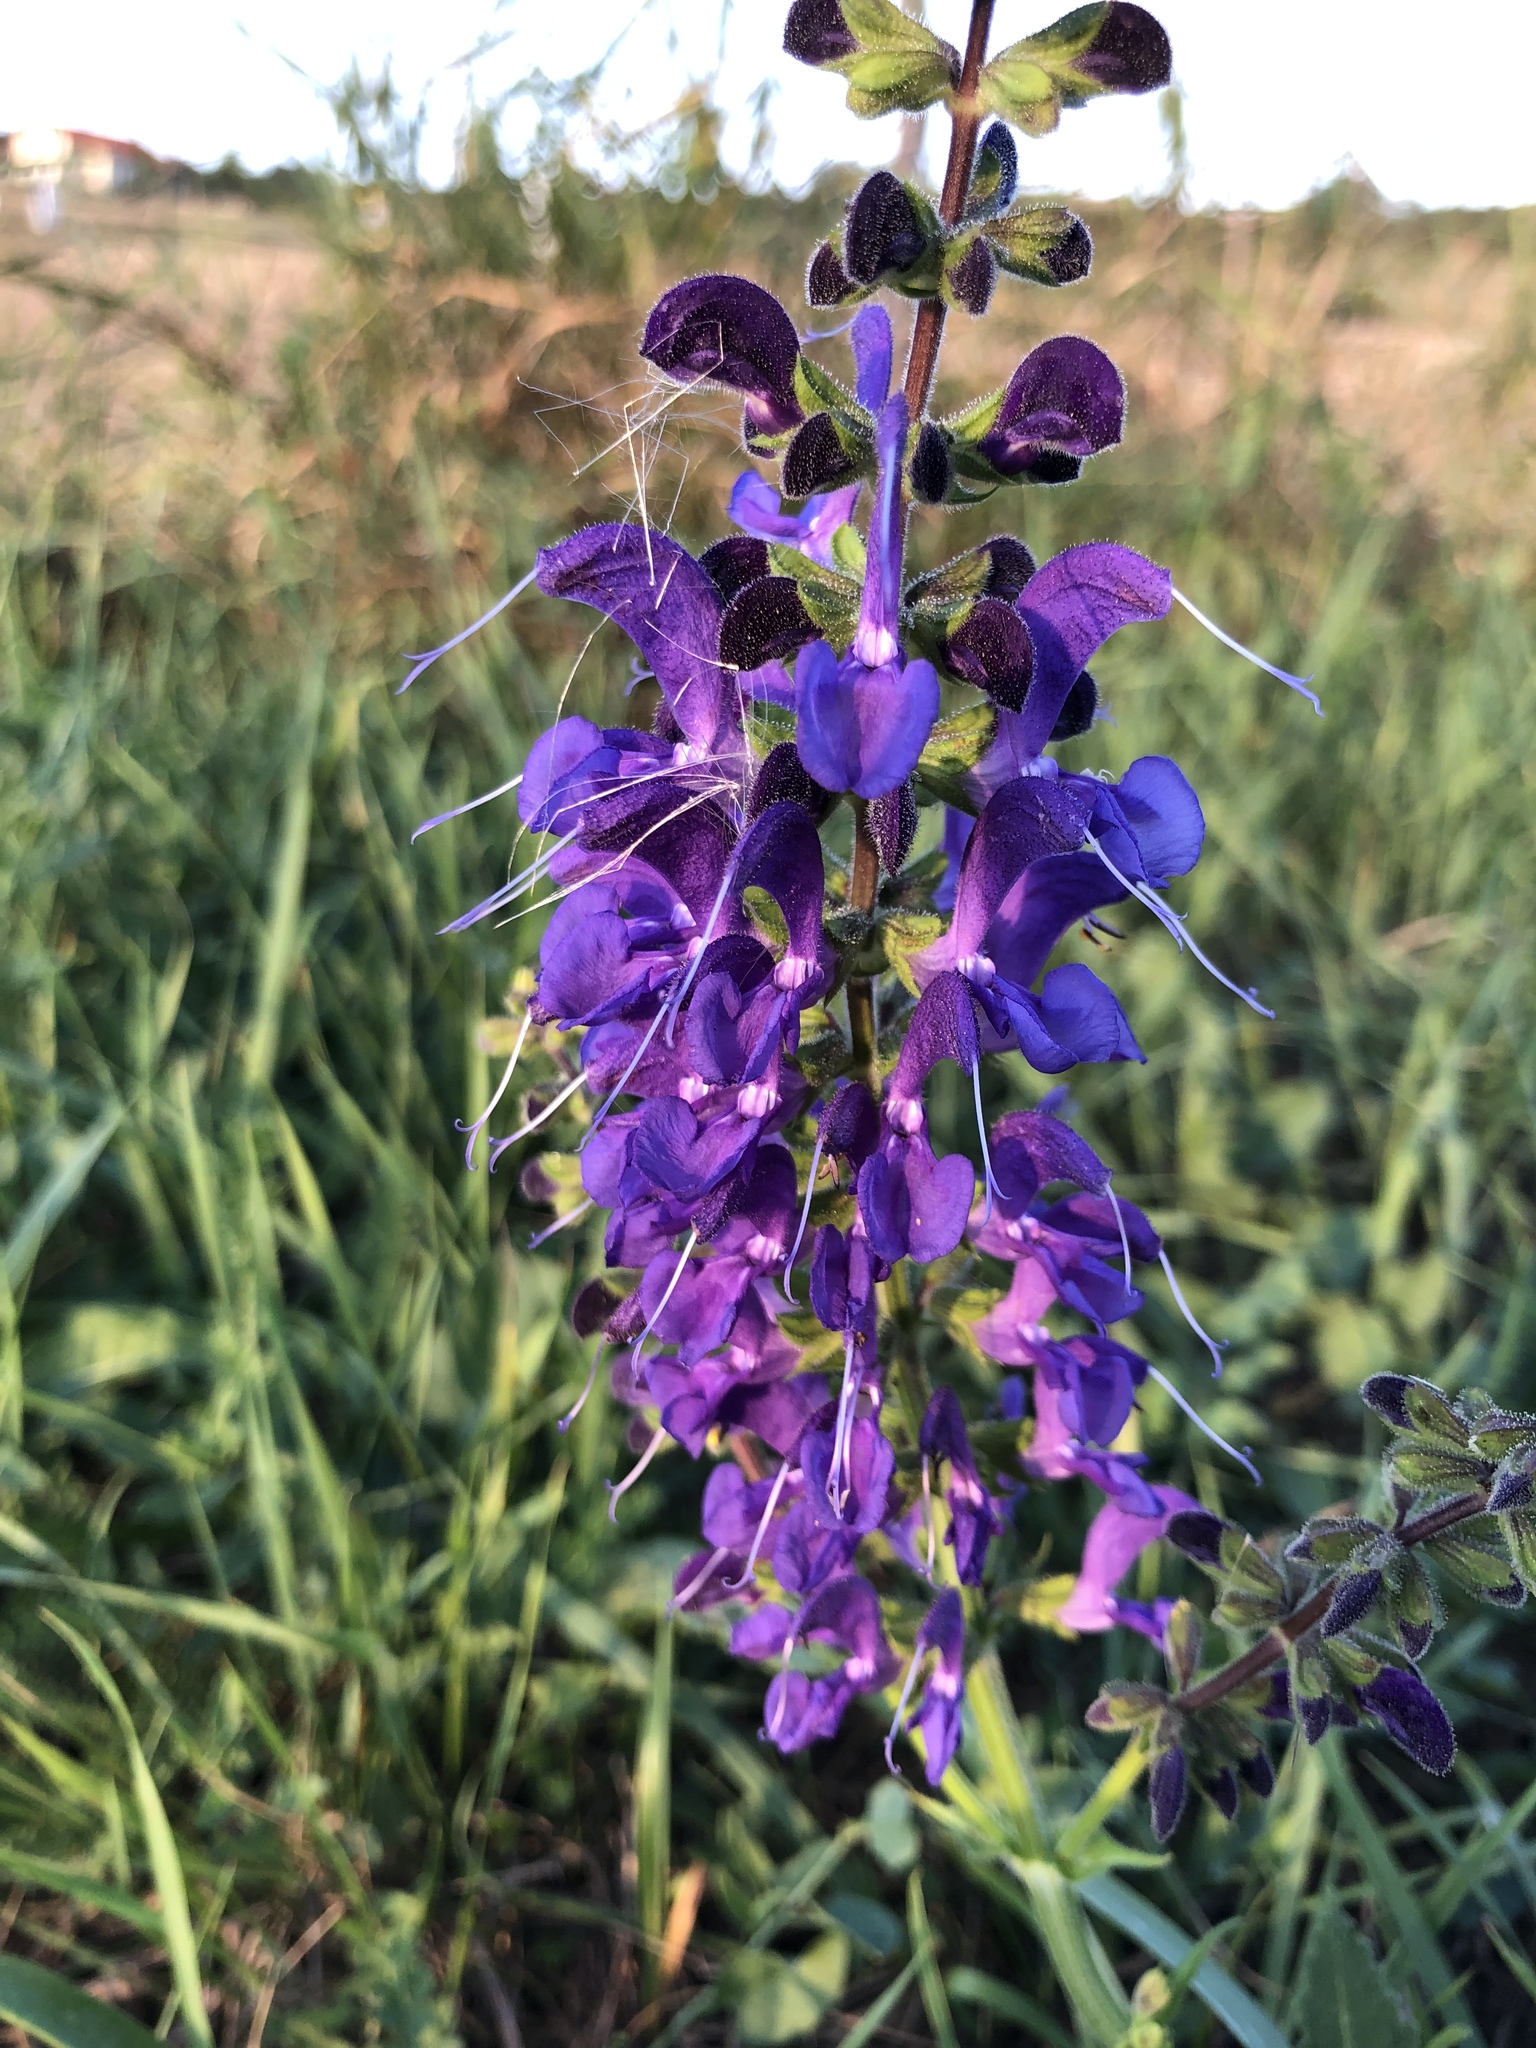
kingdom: Plantae
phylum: Tracheophyta
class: Magnoliopsida
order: Lamiales
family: Lamiaceae
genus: Salvia
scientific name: Salvia pratensis
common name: Meadow sage
